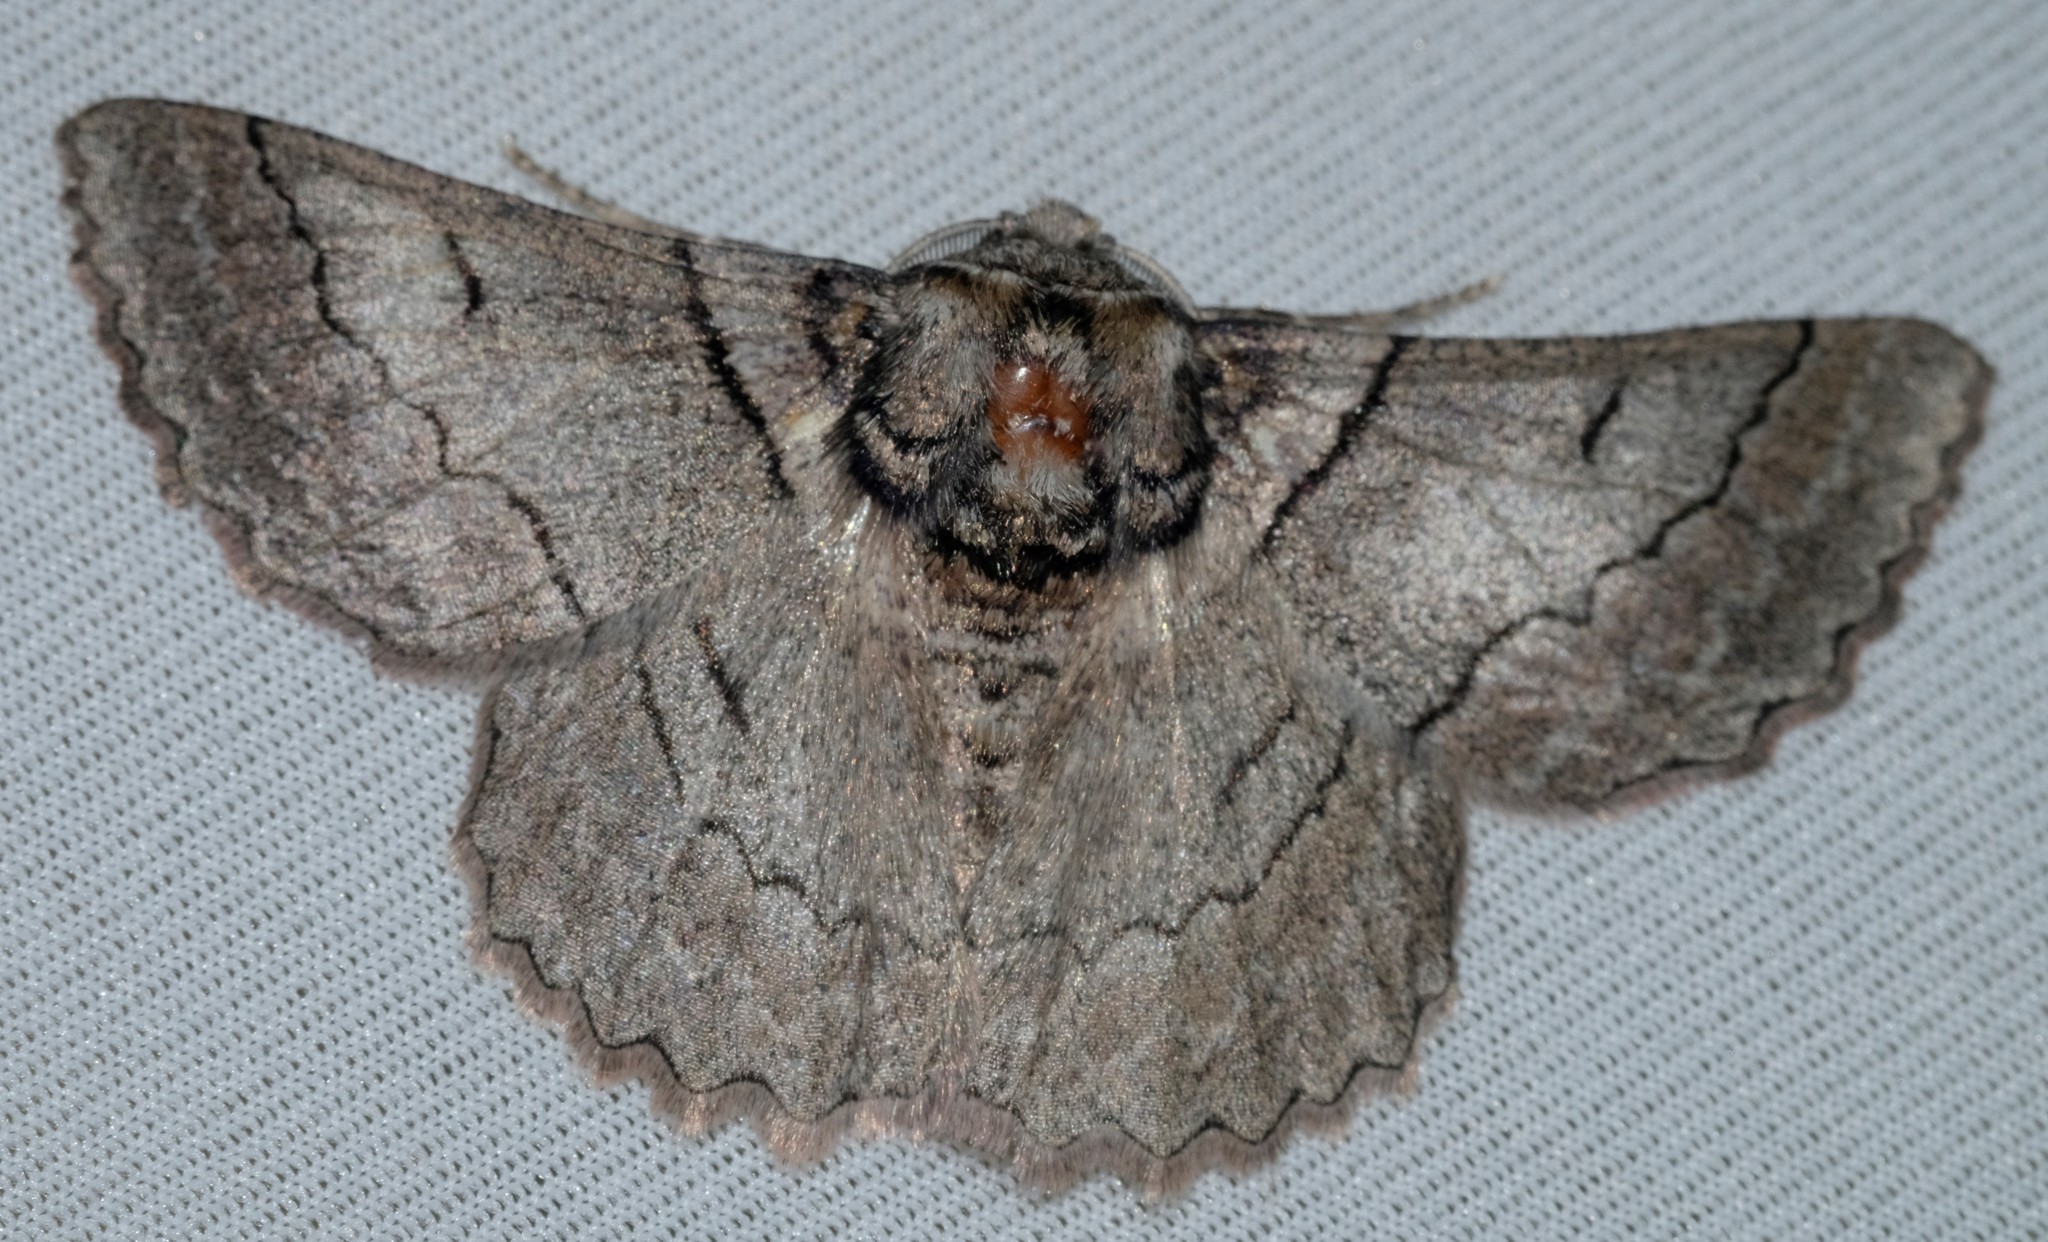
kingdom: Animalia
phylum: Arthropoda
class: Insecta
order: Lepidoptera
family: Geometridae
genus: Hypobapta
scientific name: Hypobapta tachyhalotaria
